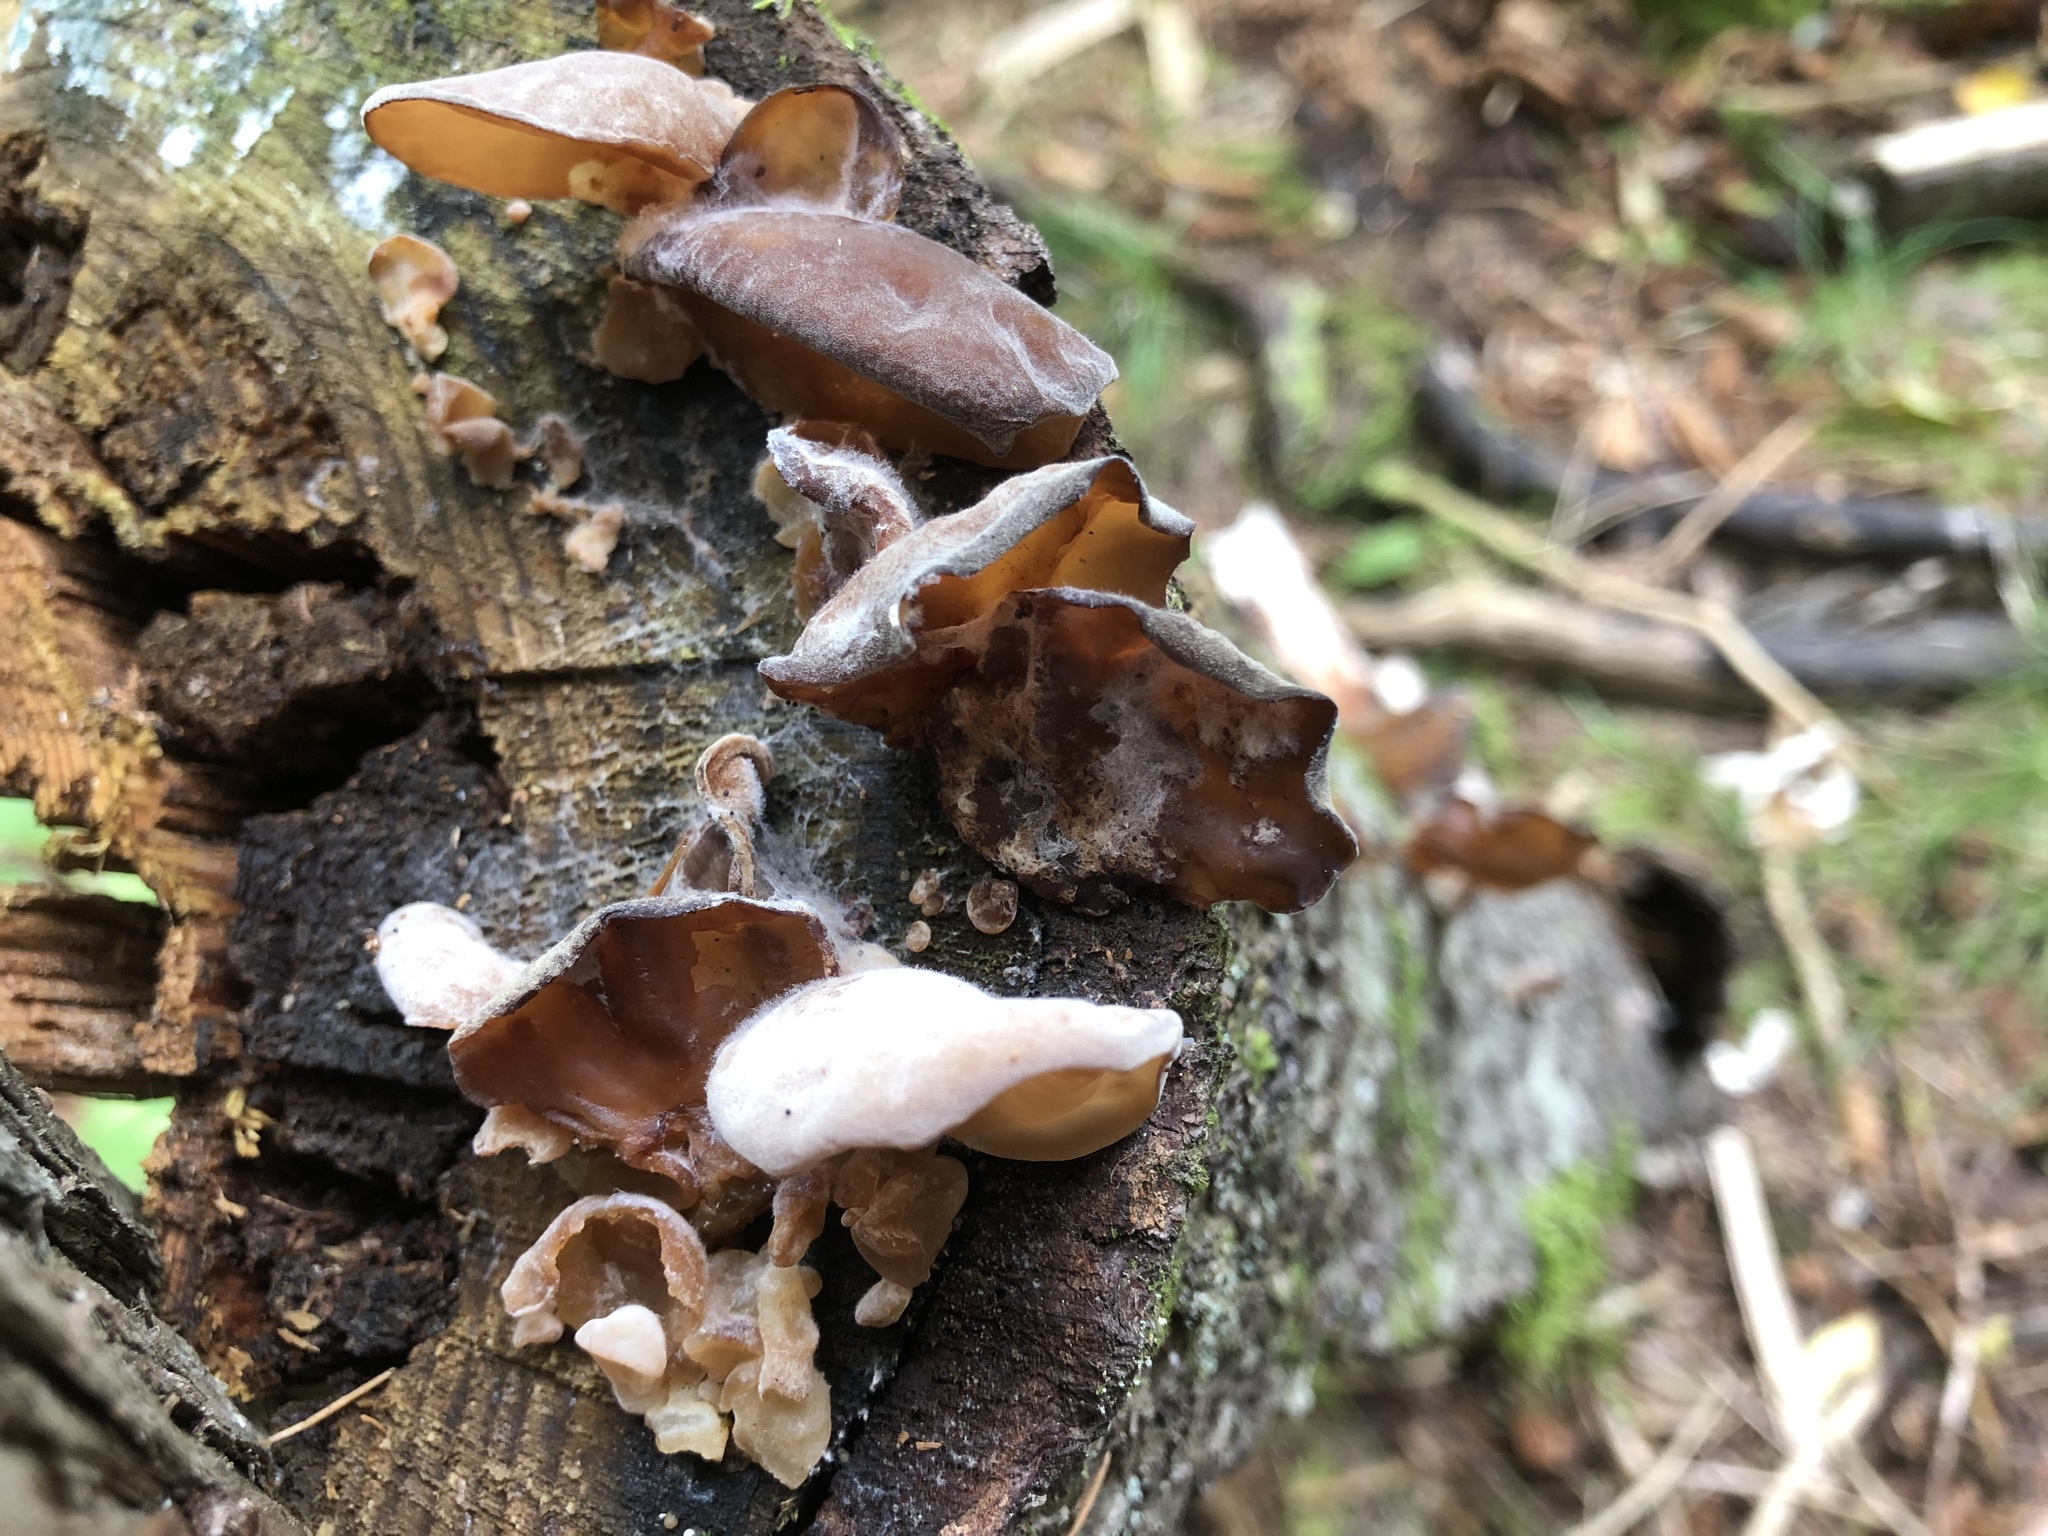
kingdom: Fungi
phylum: Basidiomycota
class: Agaricomycetes
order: Auriculariales
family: Auriculariaceae
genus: Auricularia
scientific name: Auricularia americana
